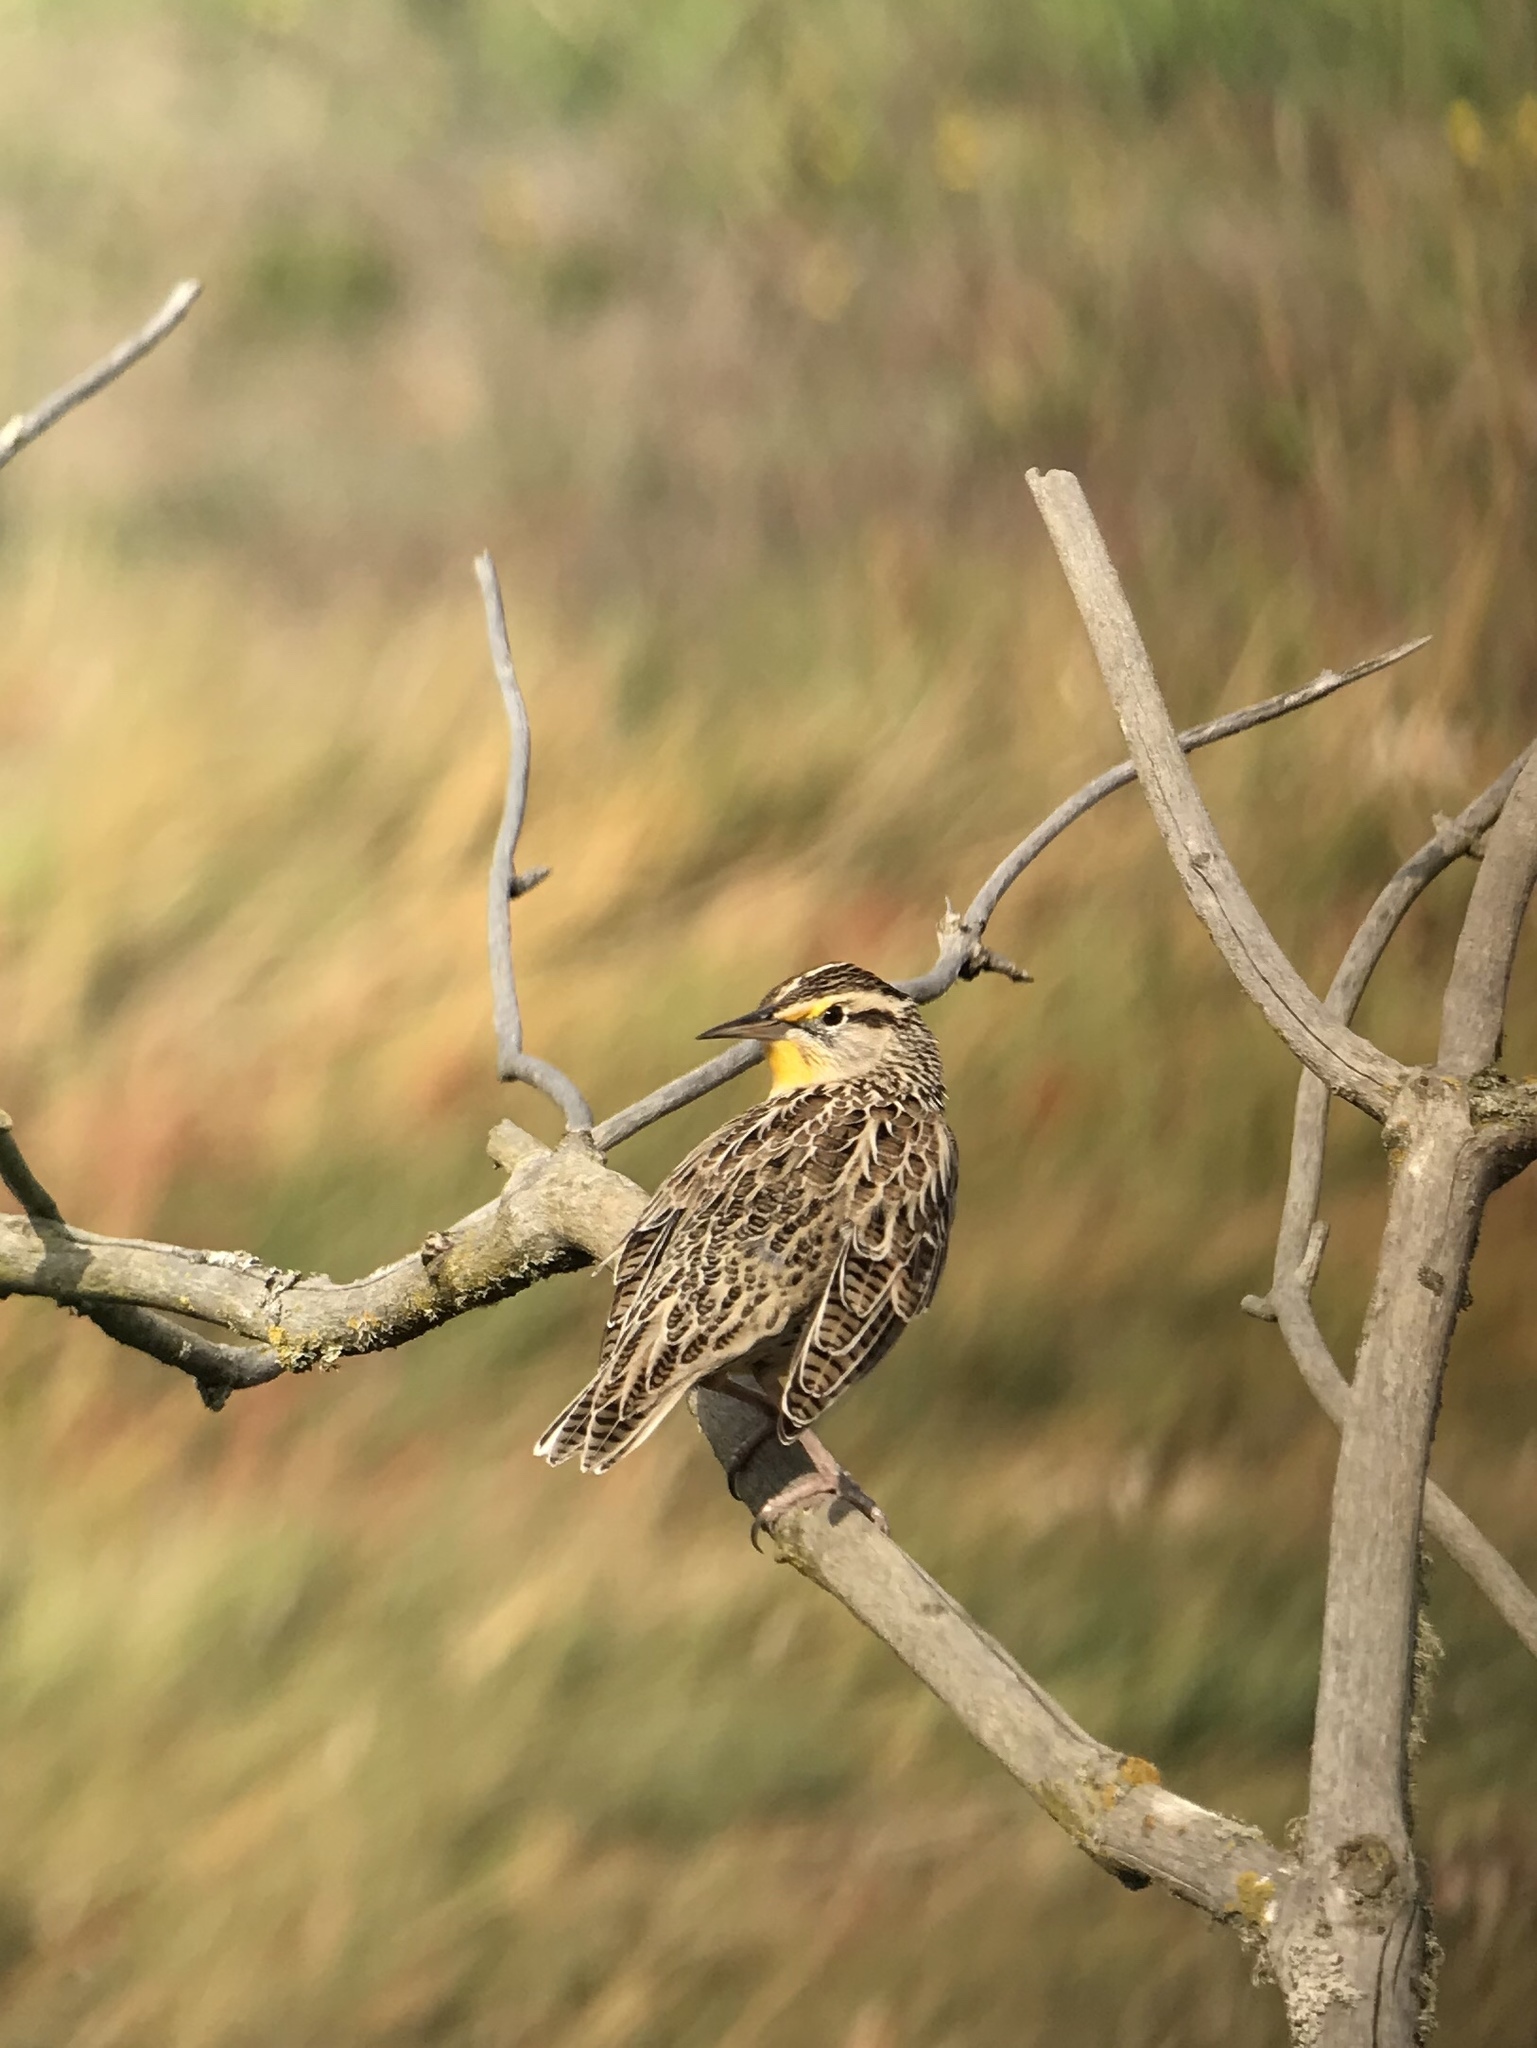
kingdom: Animalia
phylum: Chordata
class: Aves
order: Passeriformes
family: Icteridae
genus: Sturnella
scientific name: Sturnella neglecta
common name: Western meadowlark
